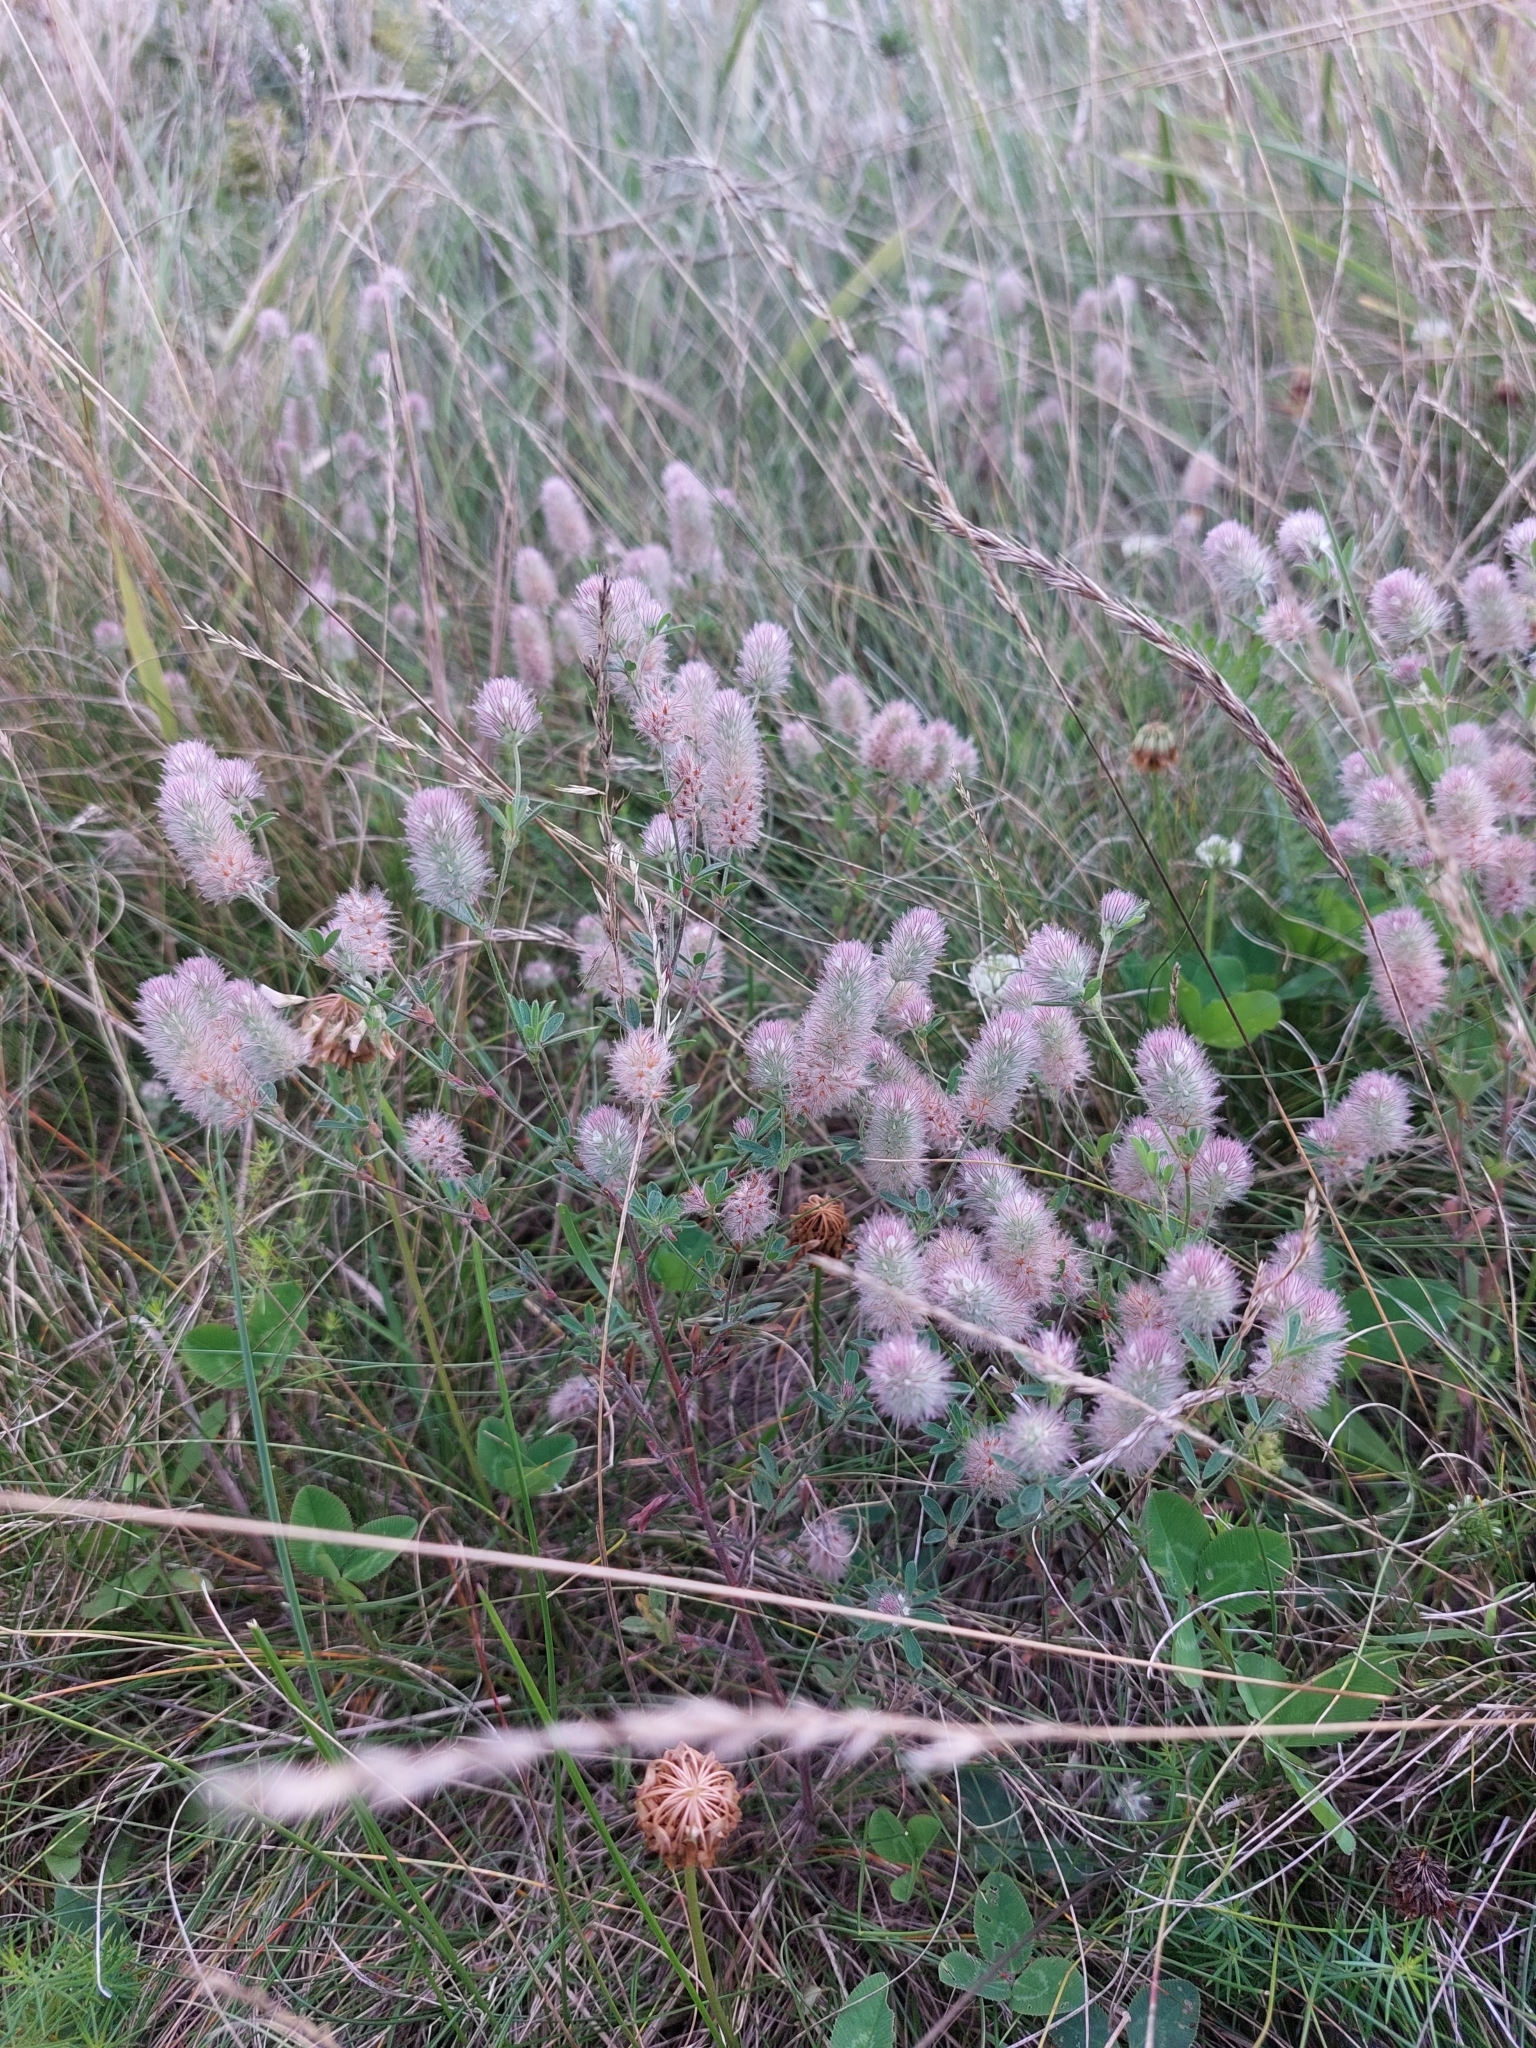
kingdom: Plantae
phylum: Tracheophyta
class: Magnoliopsida
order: Fabales
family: Fabaceae
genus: Trifolium
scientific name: Trifolium arvense
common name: Hare's-foot clover
